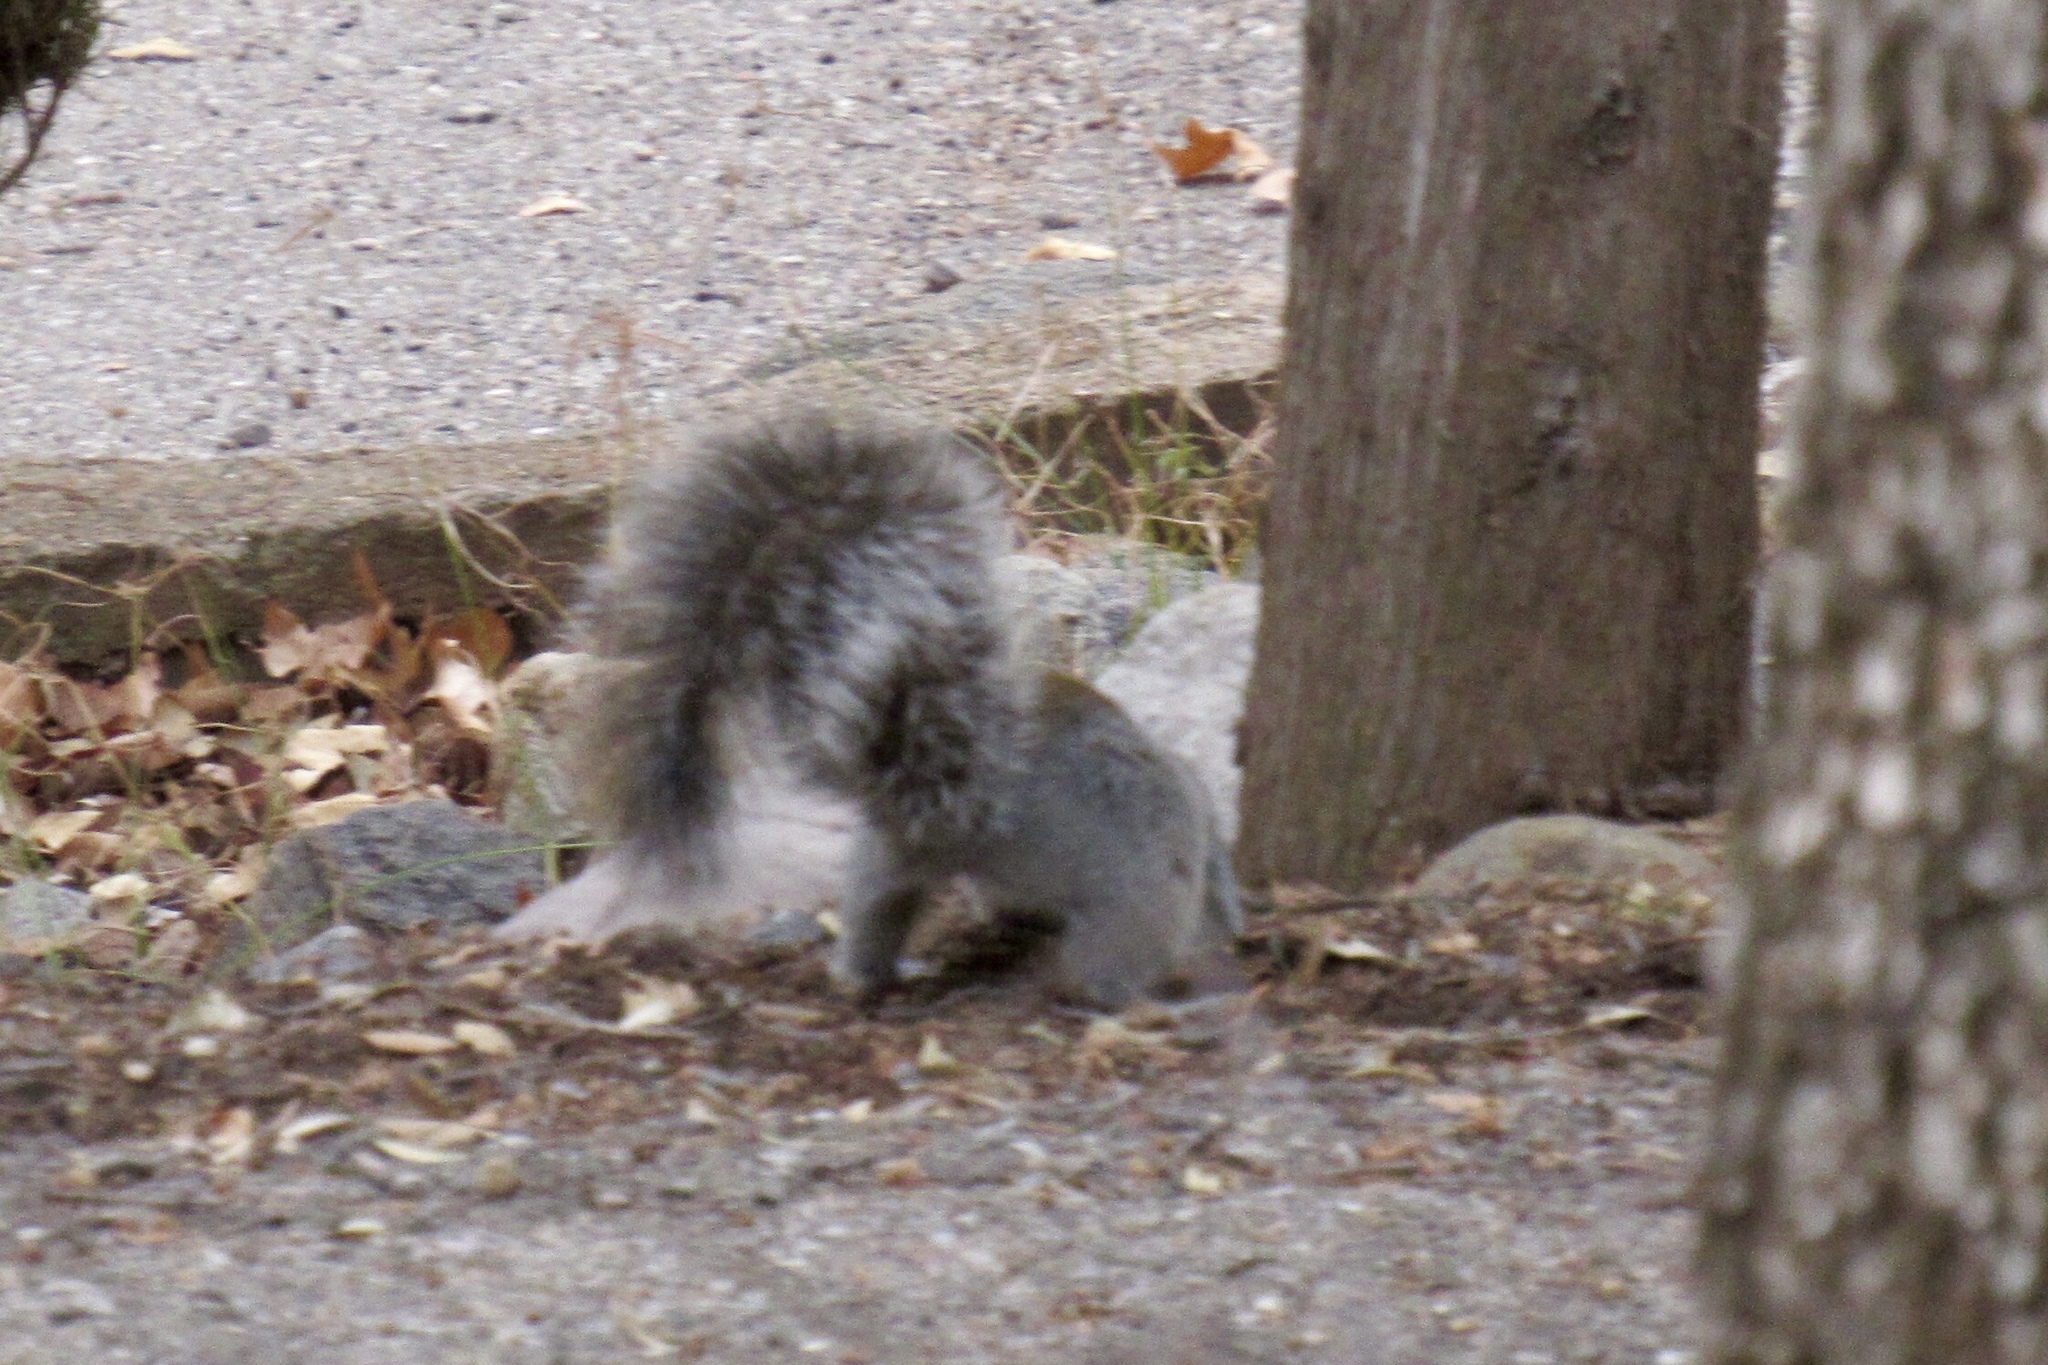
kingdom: Animalia
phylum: Chordata
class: Mammalia
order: Rodentia
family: Sciuridae
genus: Sciurus
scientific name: Sciurus arizonensis
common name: Arizona gray squirrel
